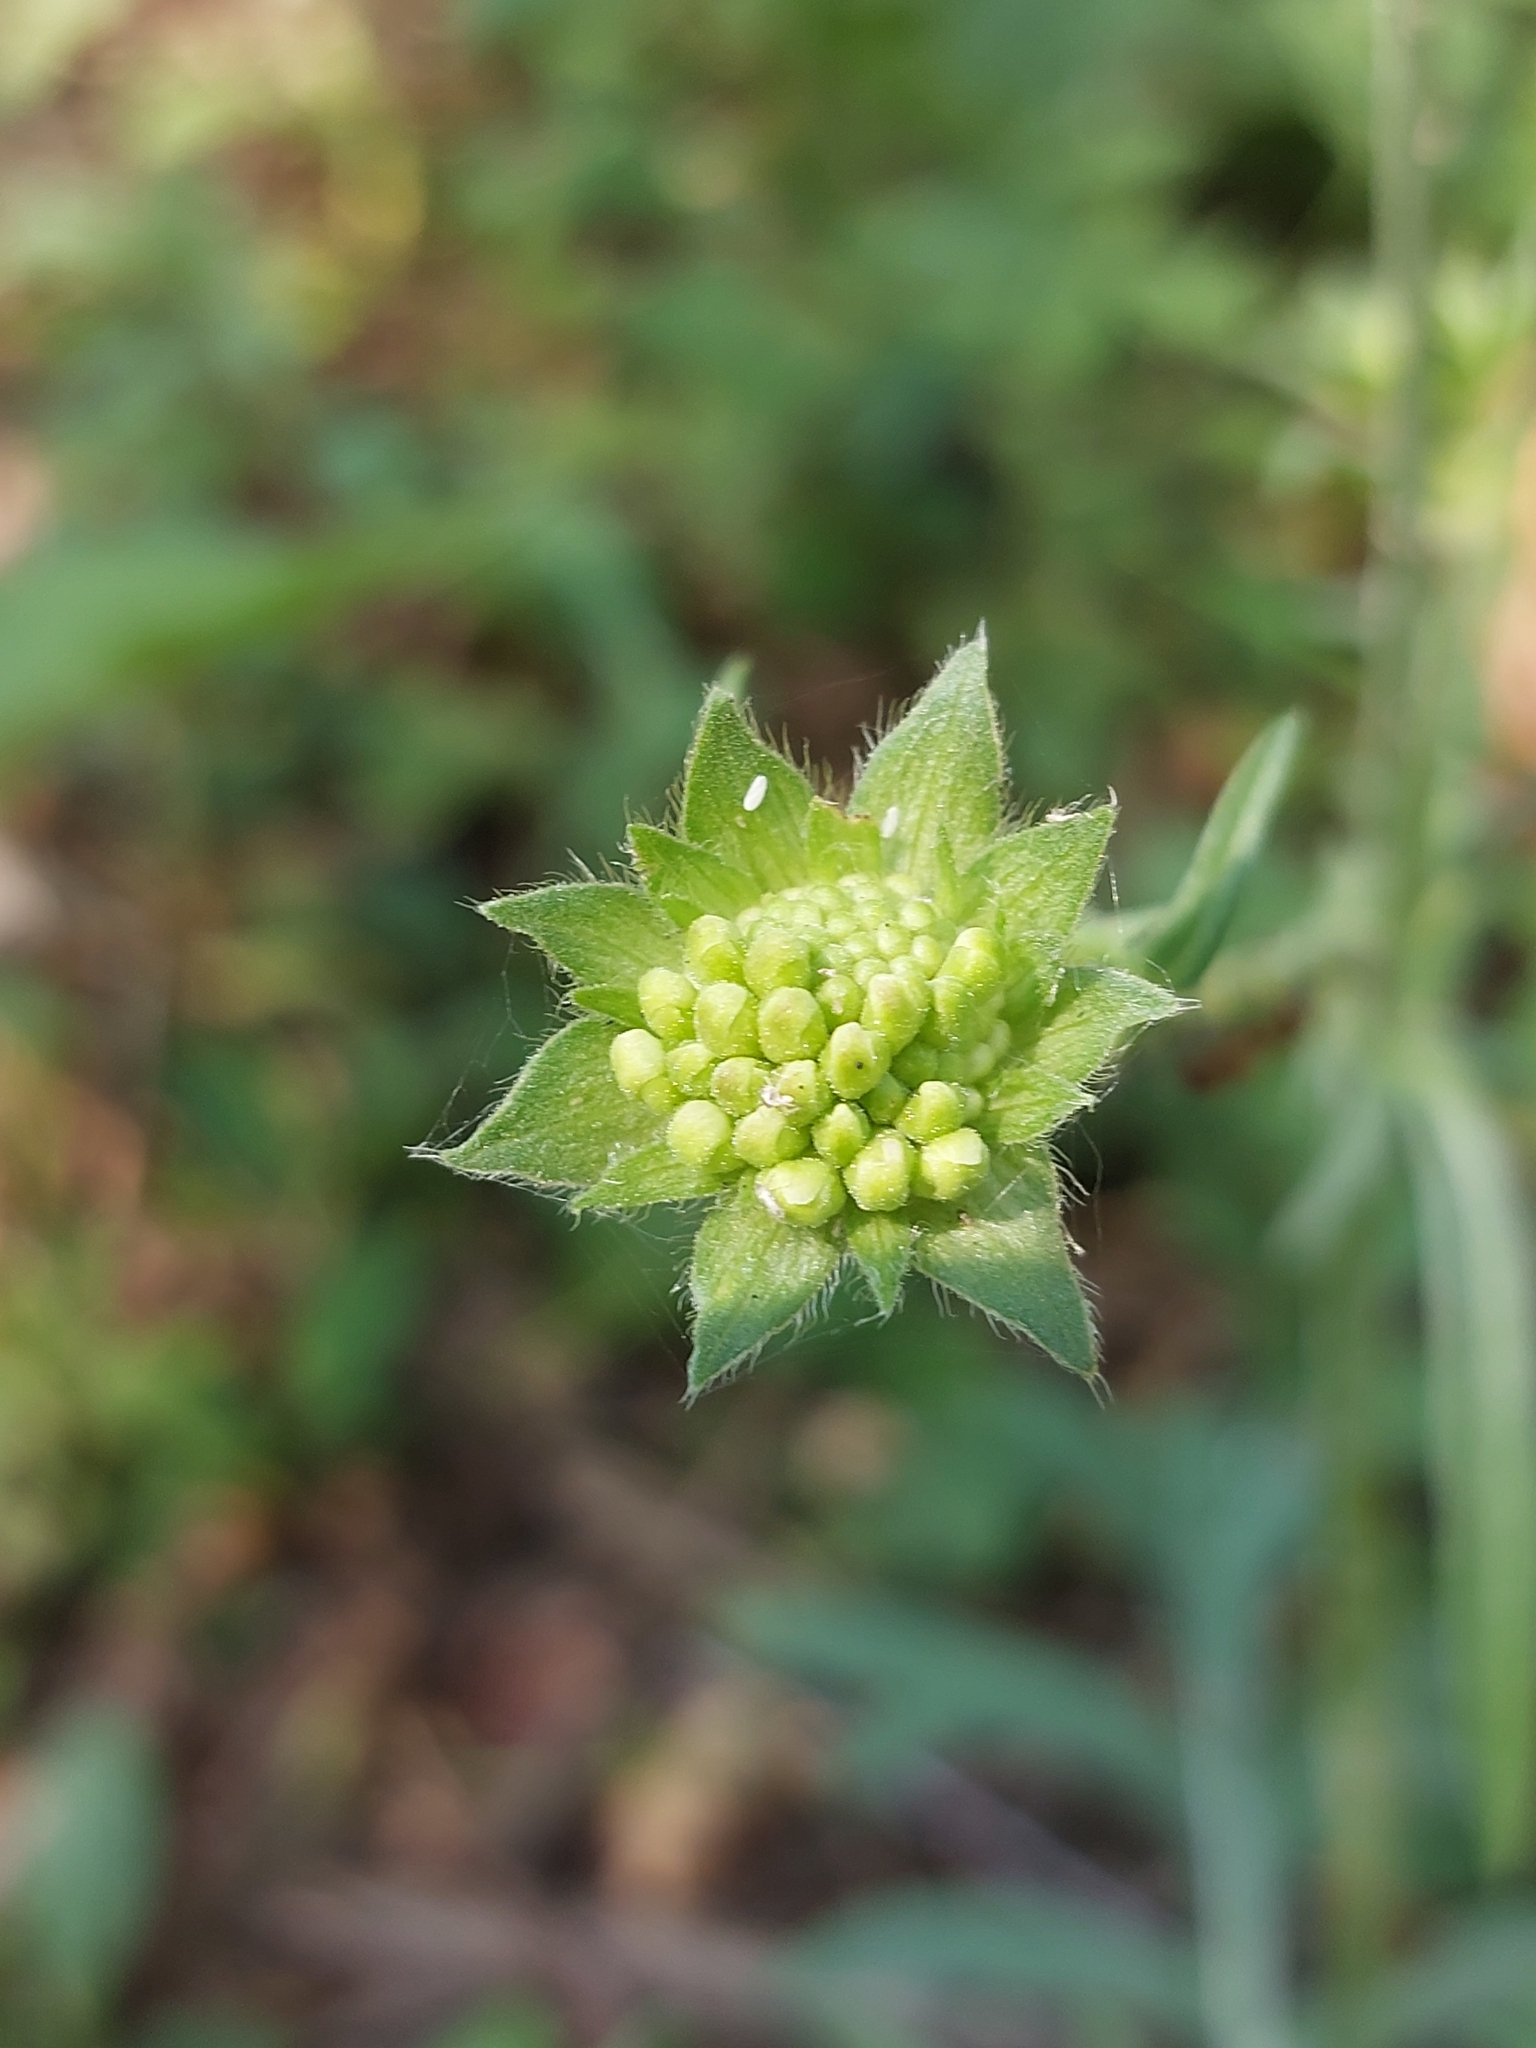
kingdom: Plantae
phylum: Tracheophyta
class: Magnoliopsida
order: Dipsacales
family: Caprifoliaceae
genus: Knautia
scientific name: Knautia arvensis
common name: Field scabiosa
